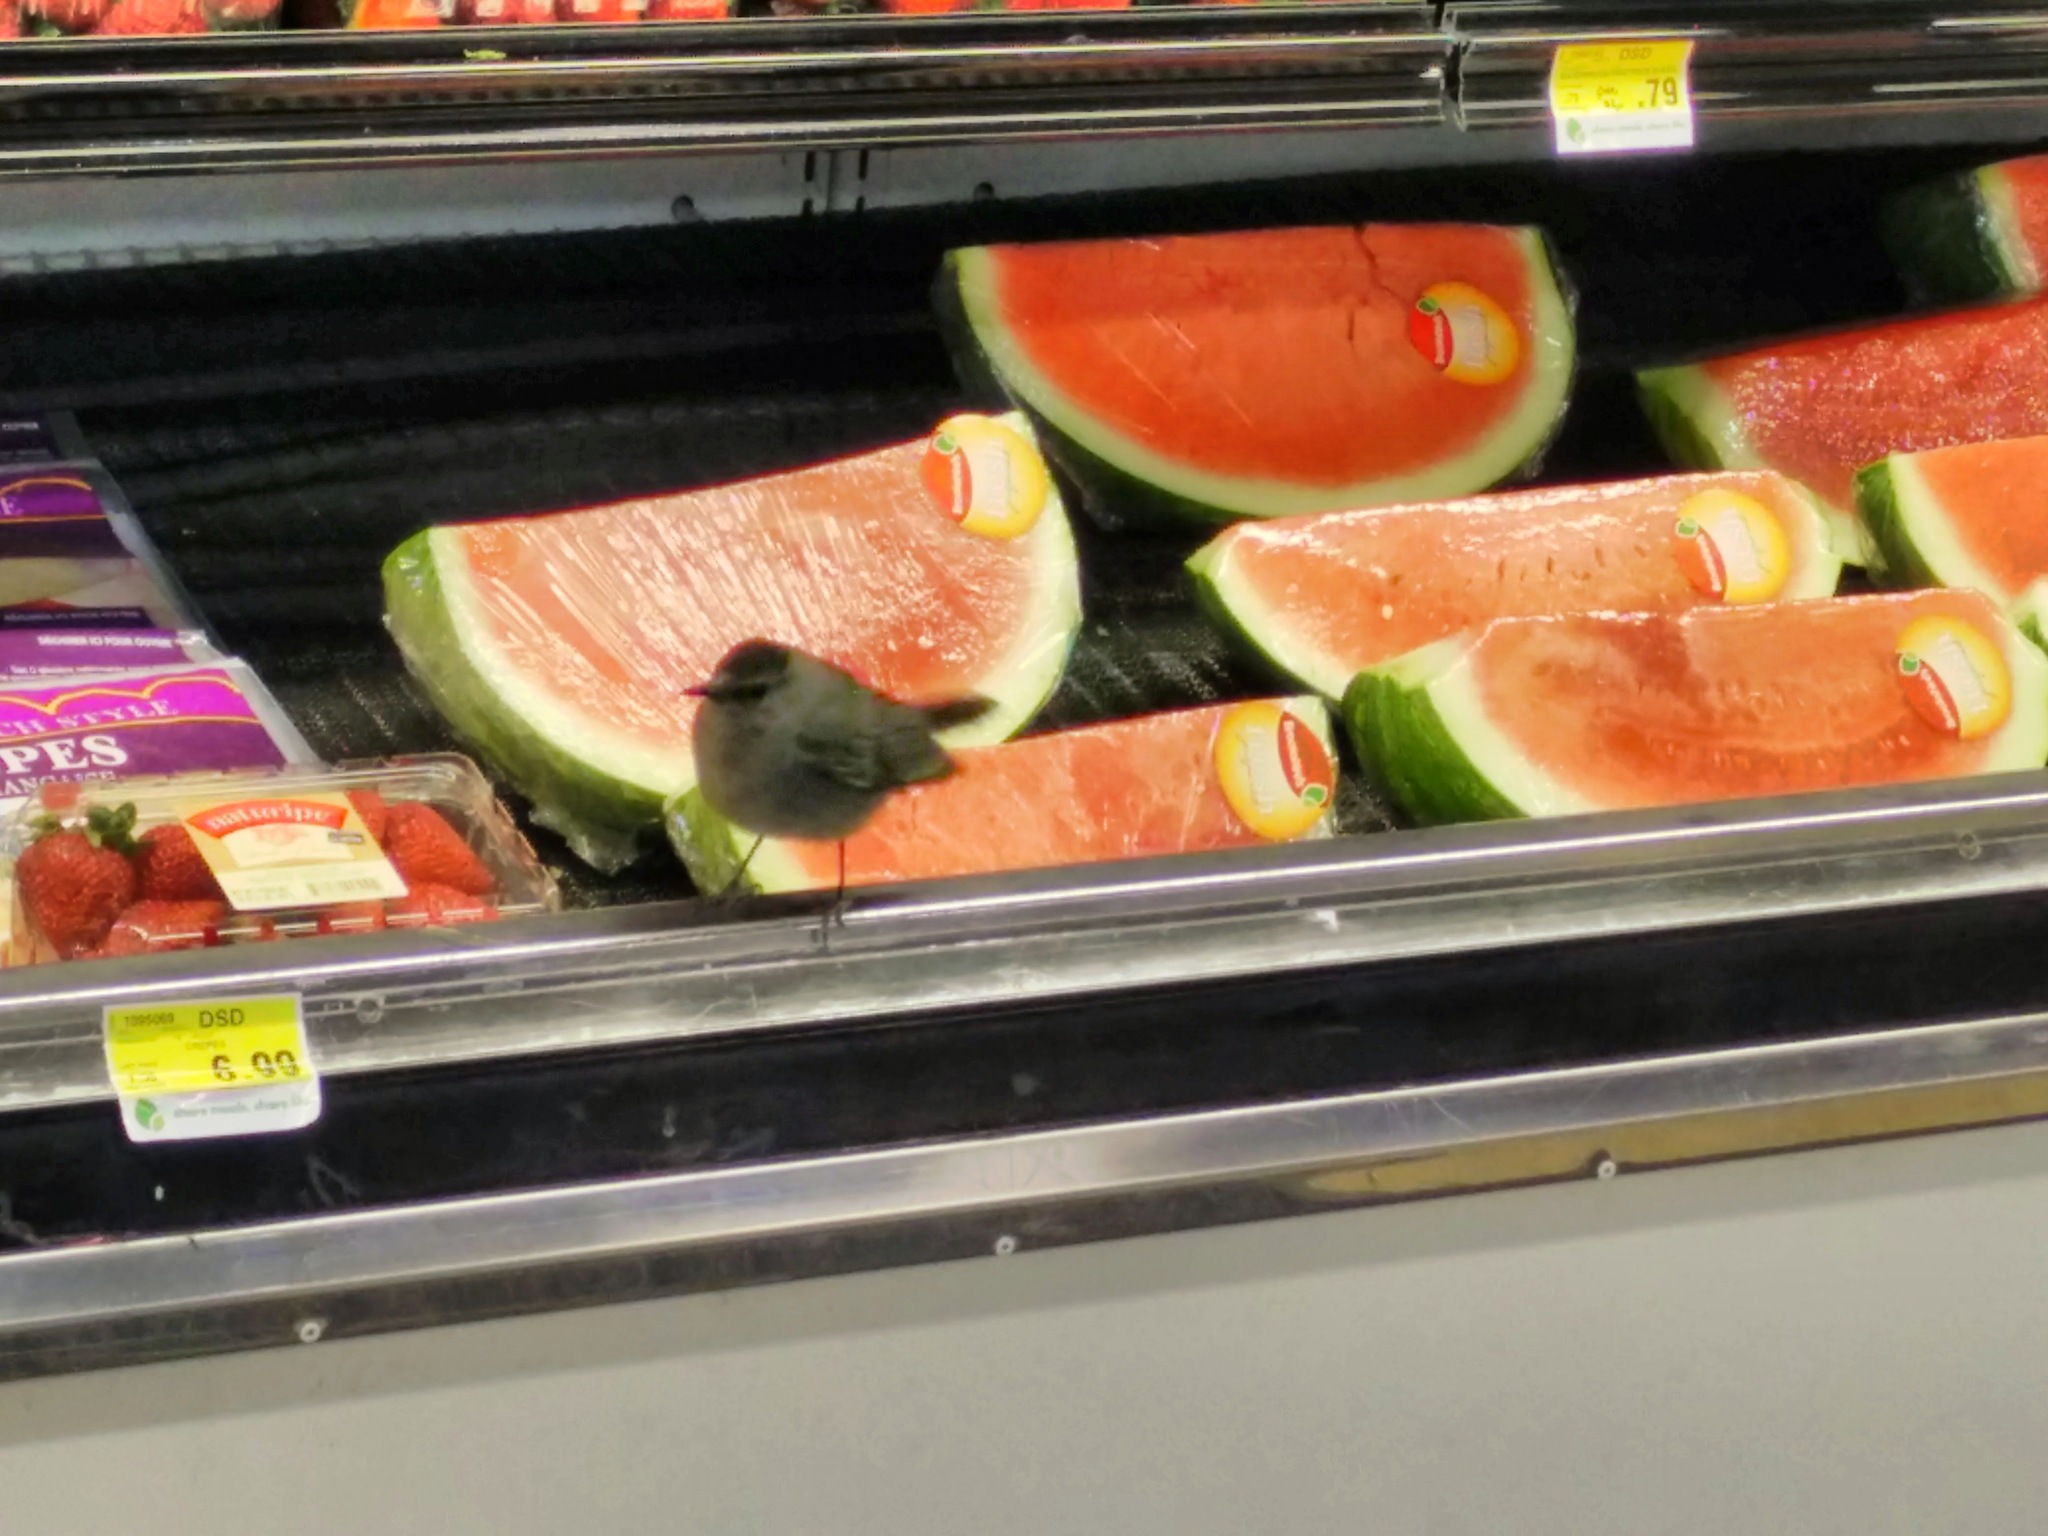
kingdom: Animalia
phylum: Chordata
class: Aves
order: Passeriformes
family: Mimidae
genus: Dumetella
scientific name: Dumetella carolinensis
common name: Gray catbird
